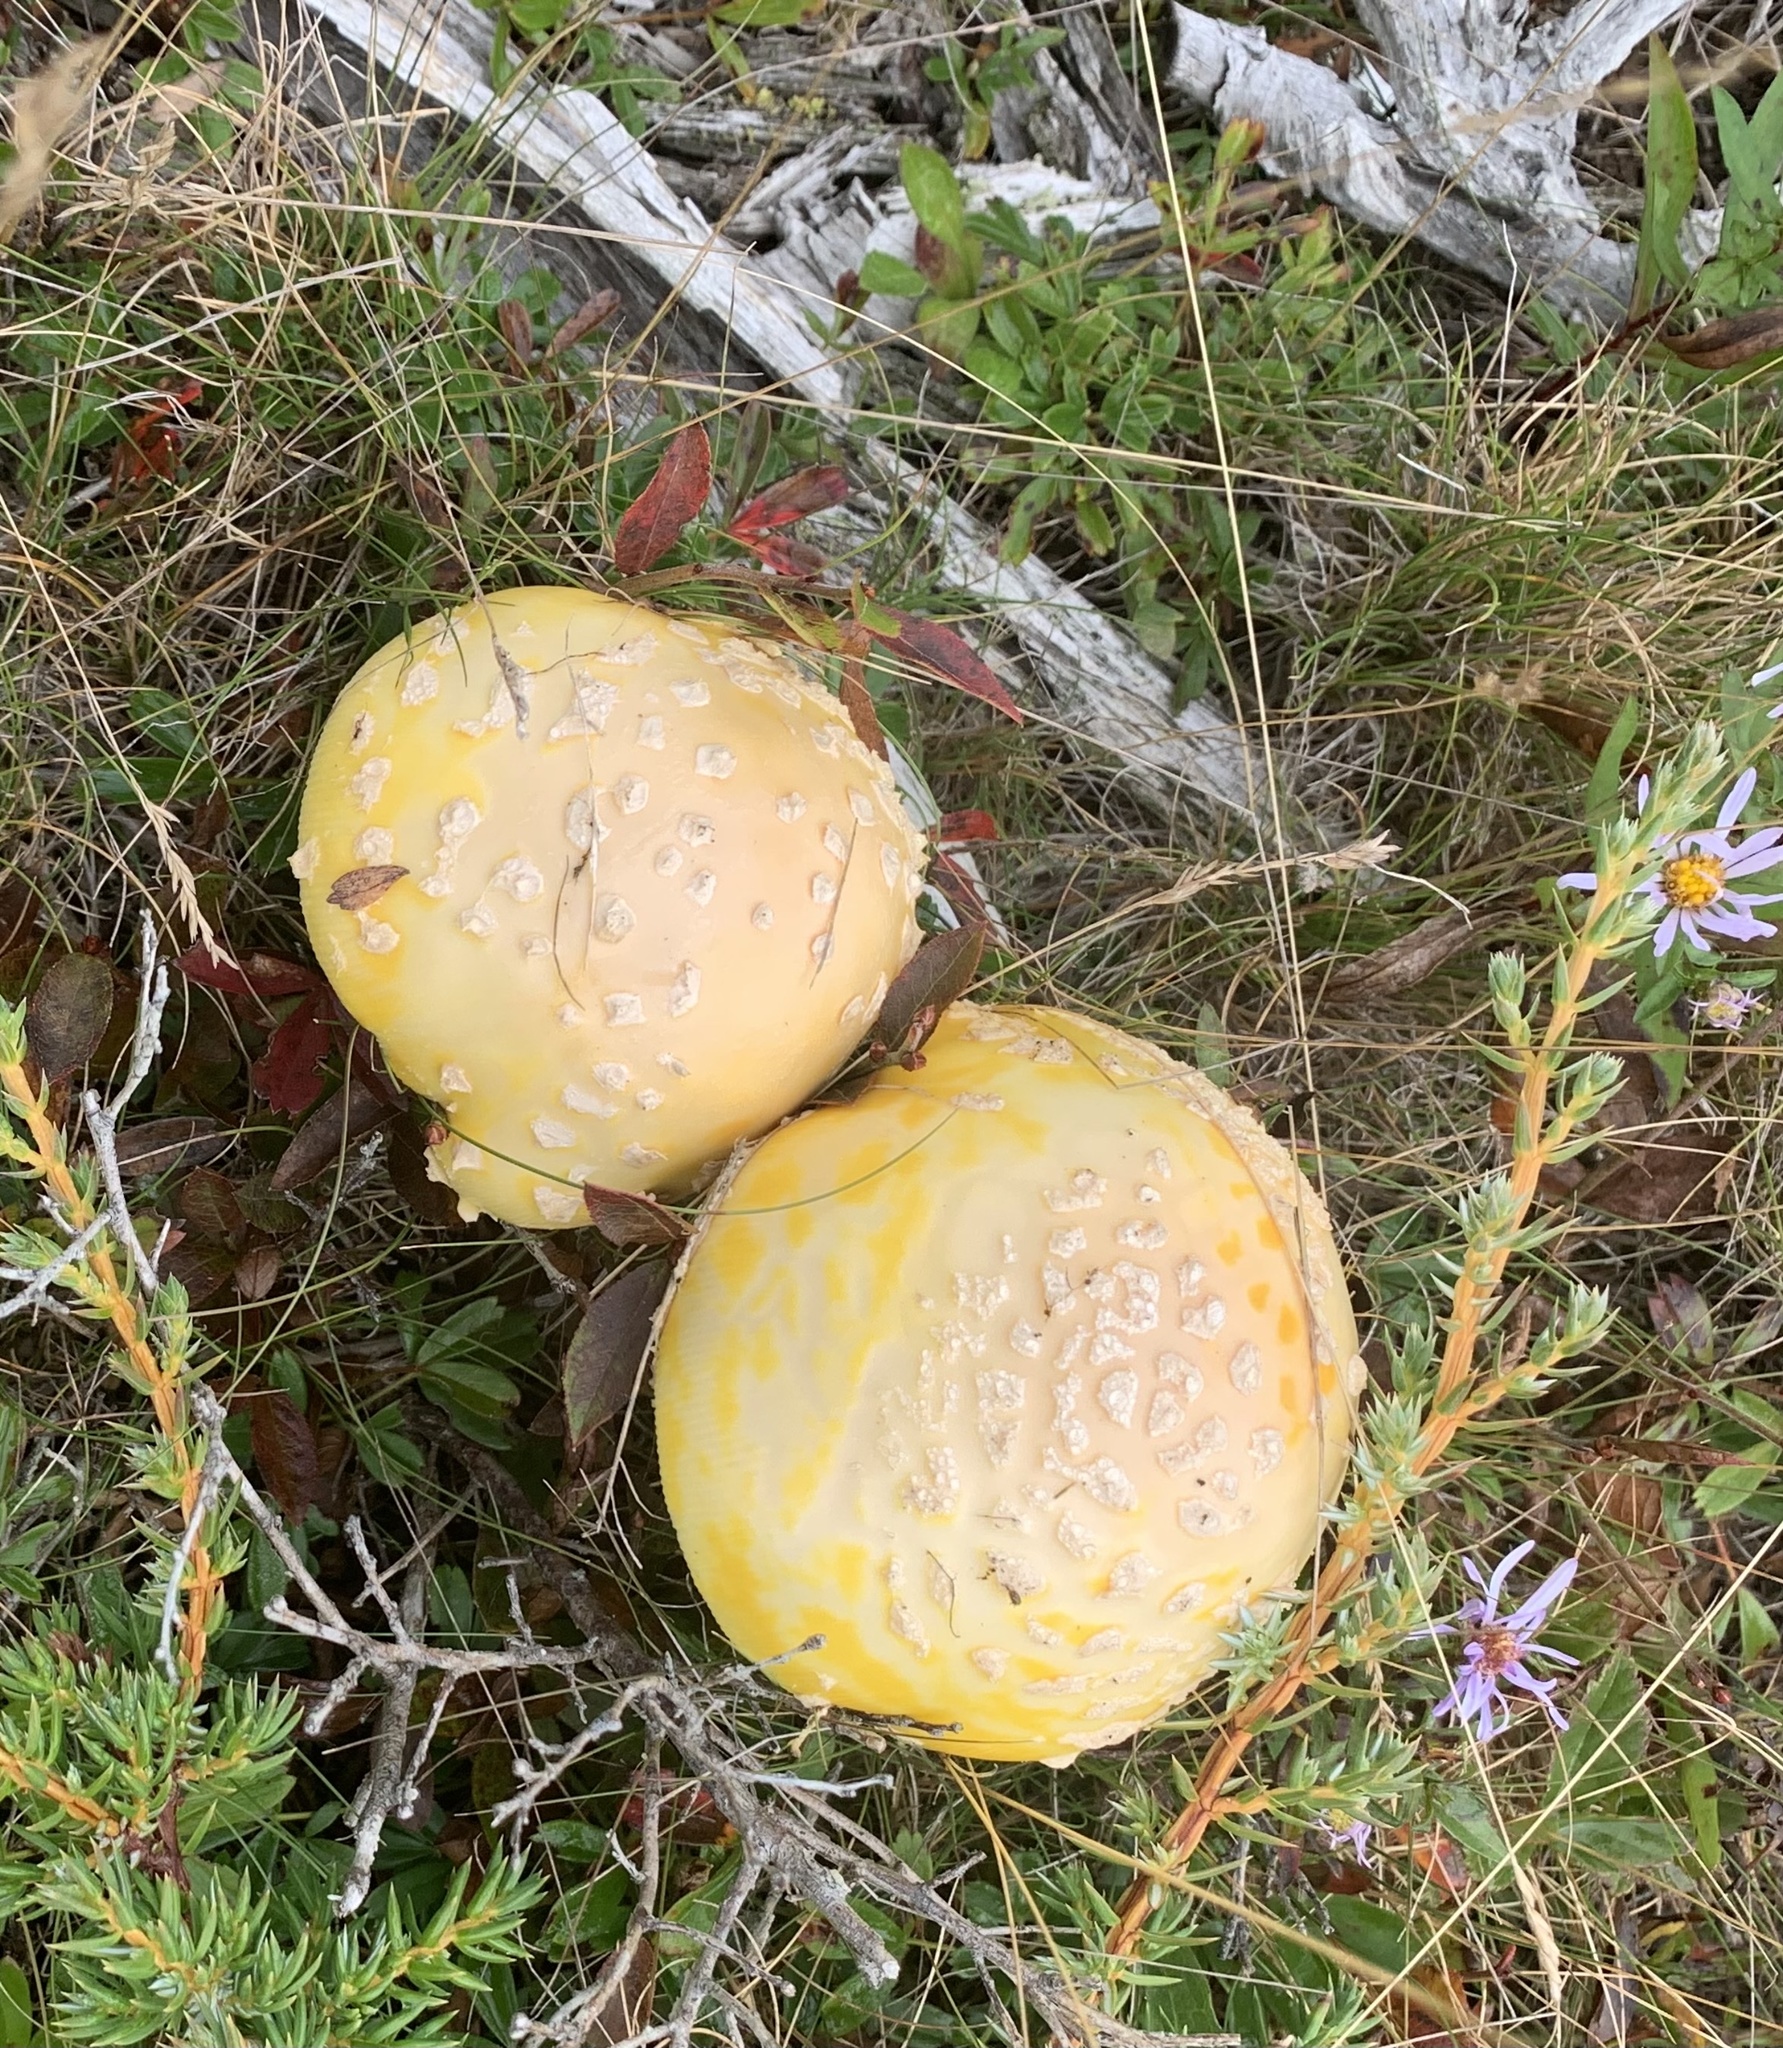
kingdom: Fungi
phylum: Basidiomycota
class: Agaricomycetes
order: Agaricales
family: Amanitaceae
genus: Amanita
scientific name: Amanita muscaria
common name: Fly agaric
